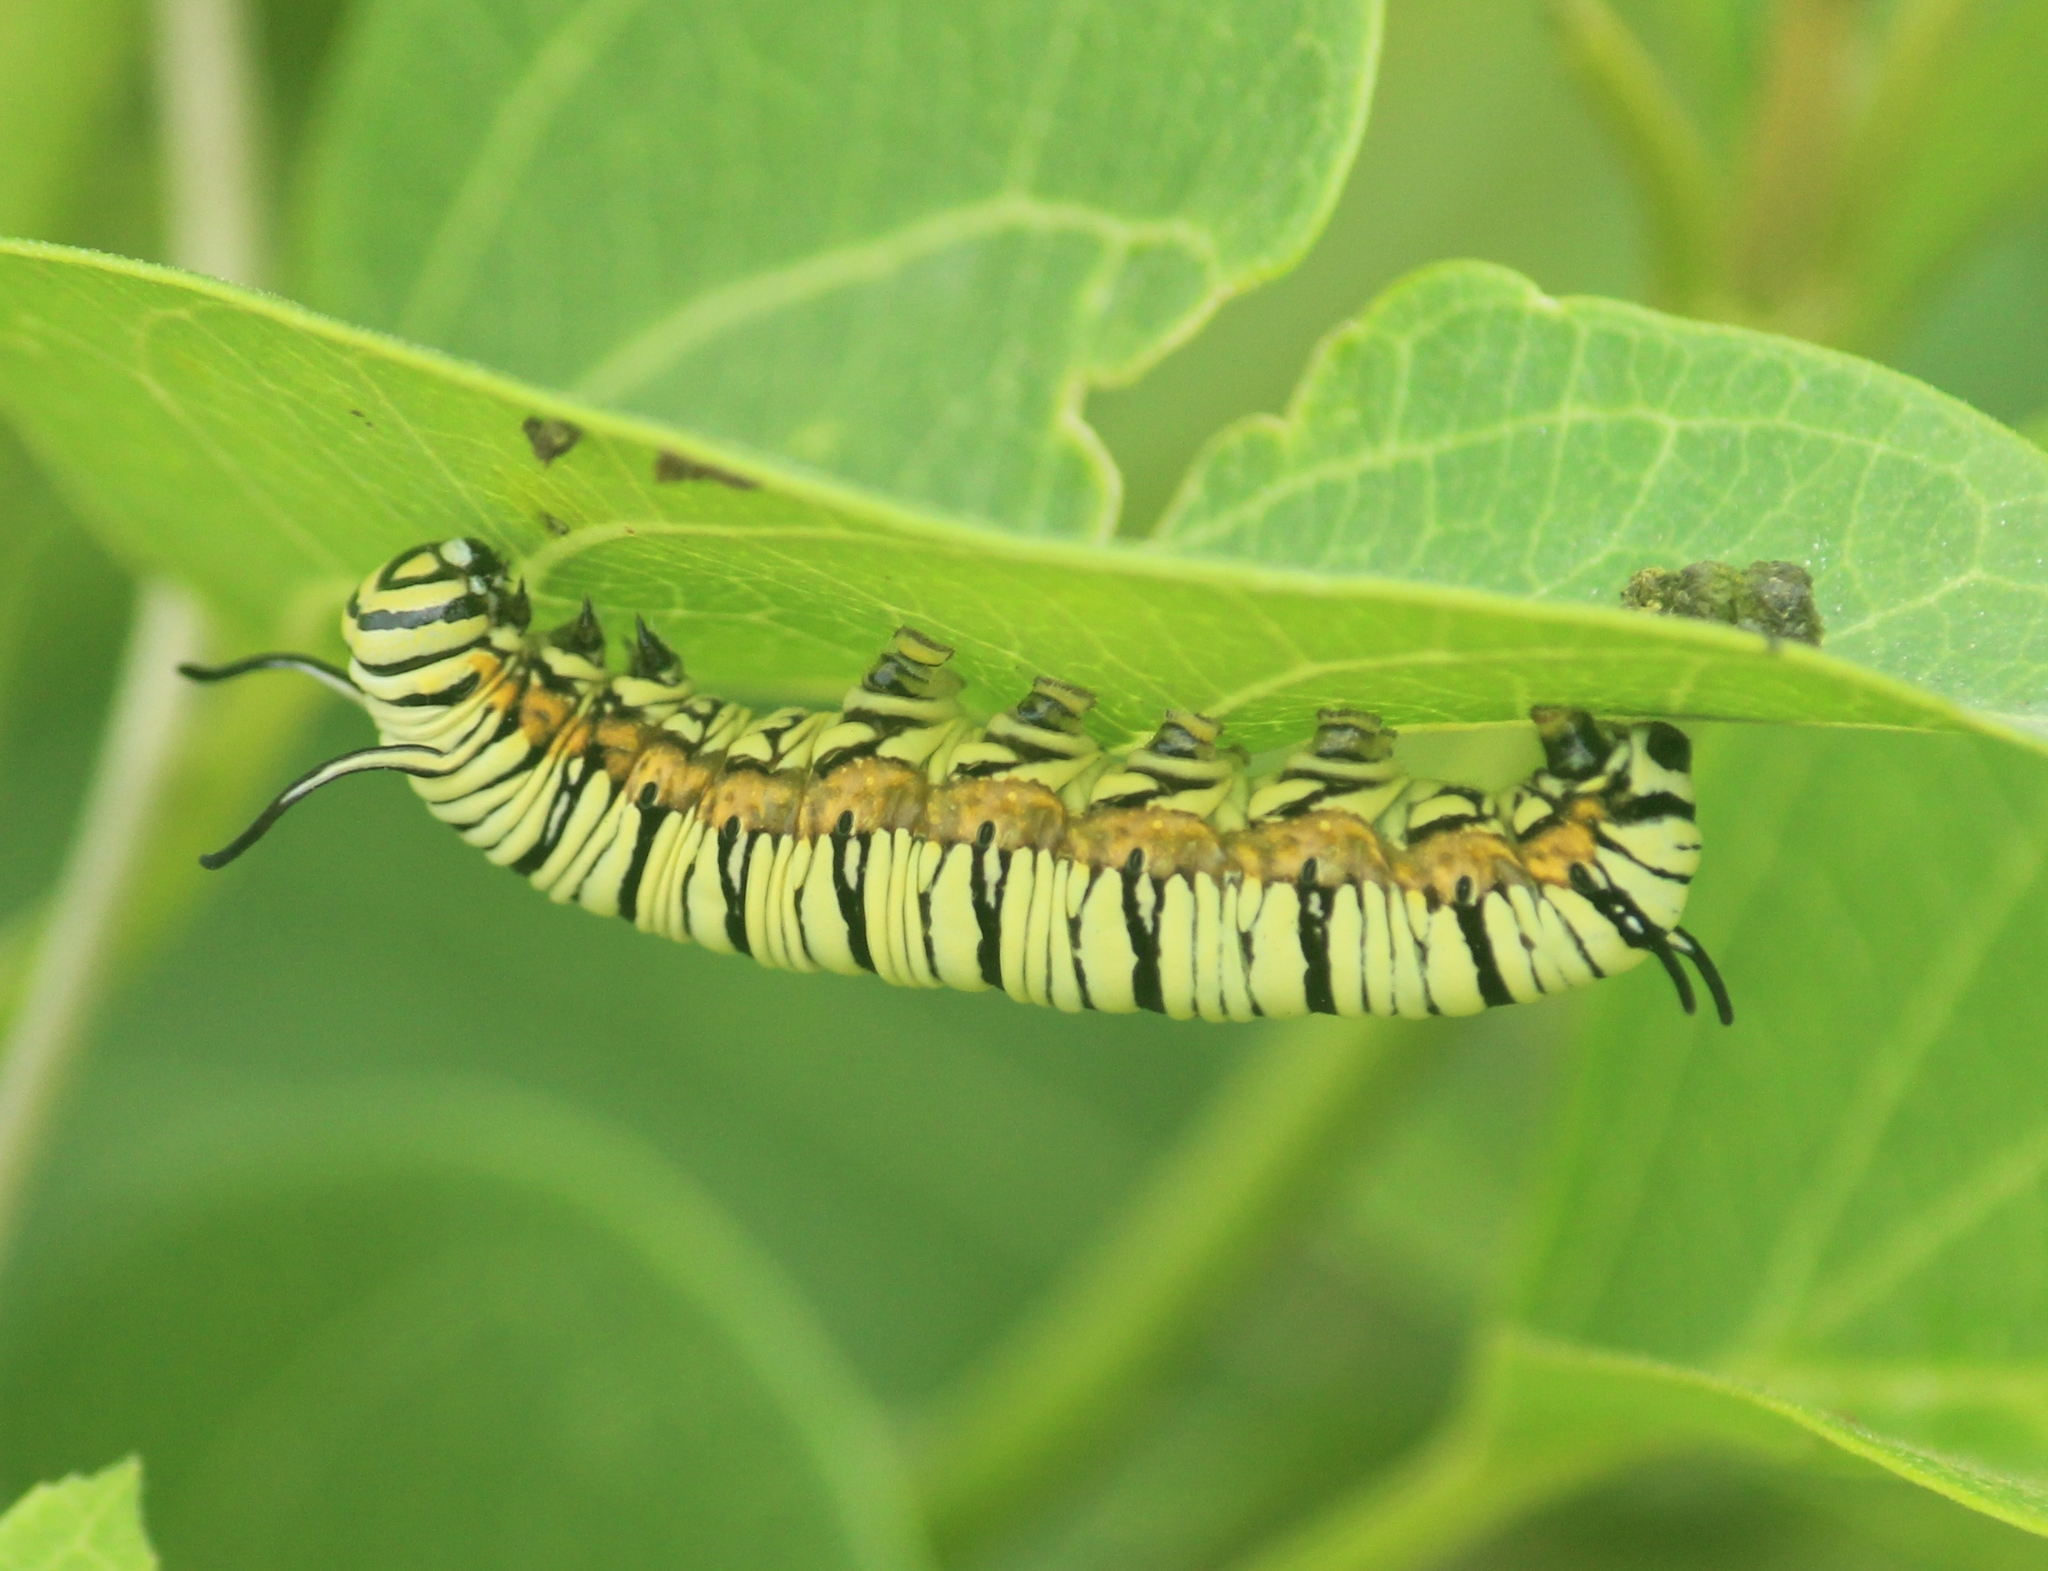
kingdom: Animalia
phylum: Arthropoda
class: Insecta
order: Lepidoptera
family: Nymphalidae
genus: Tirumala
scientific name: Tirumala limniace
